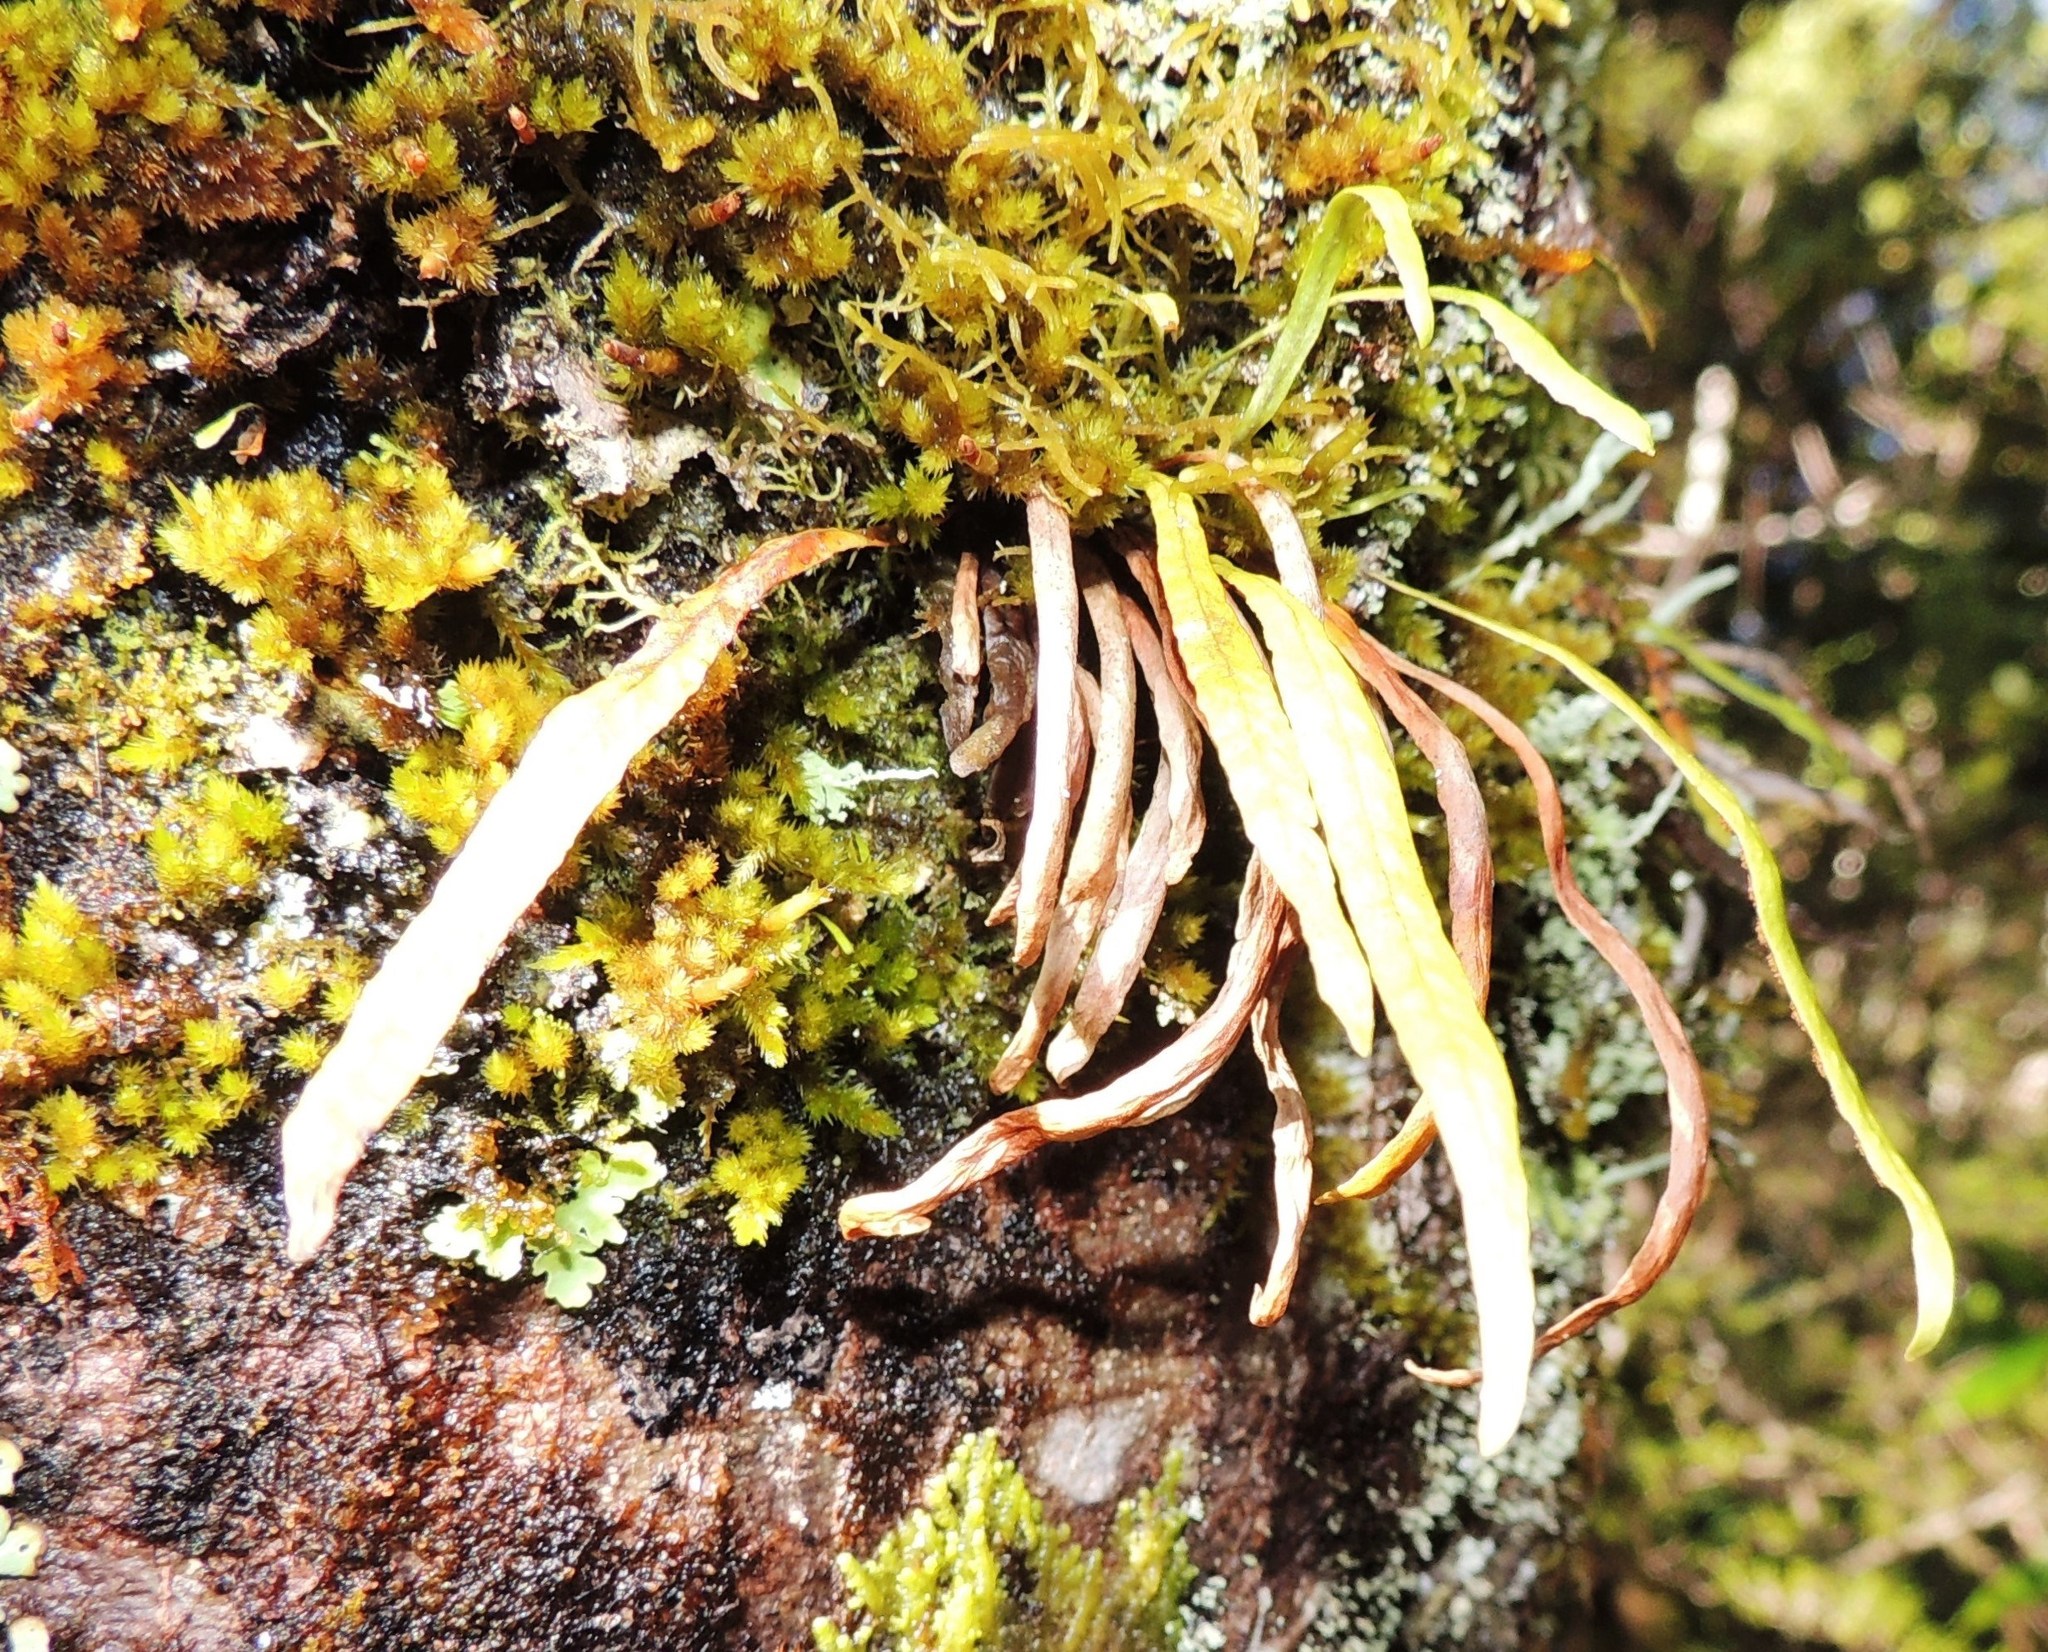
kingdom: Plantae
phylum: Tracheophyta
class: Polypodiopsida
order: Polypodiales
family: Polypodiaceae
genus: Notogrammitis
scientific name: Notogrammitis angustifolia
